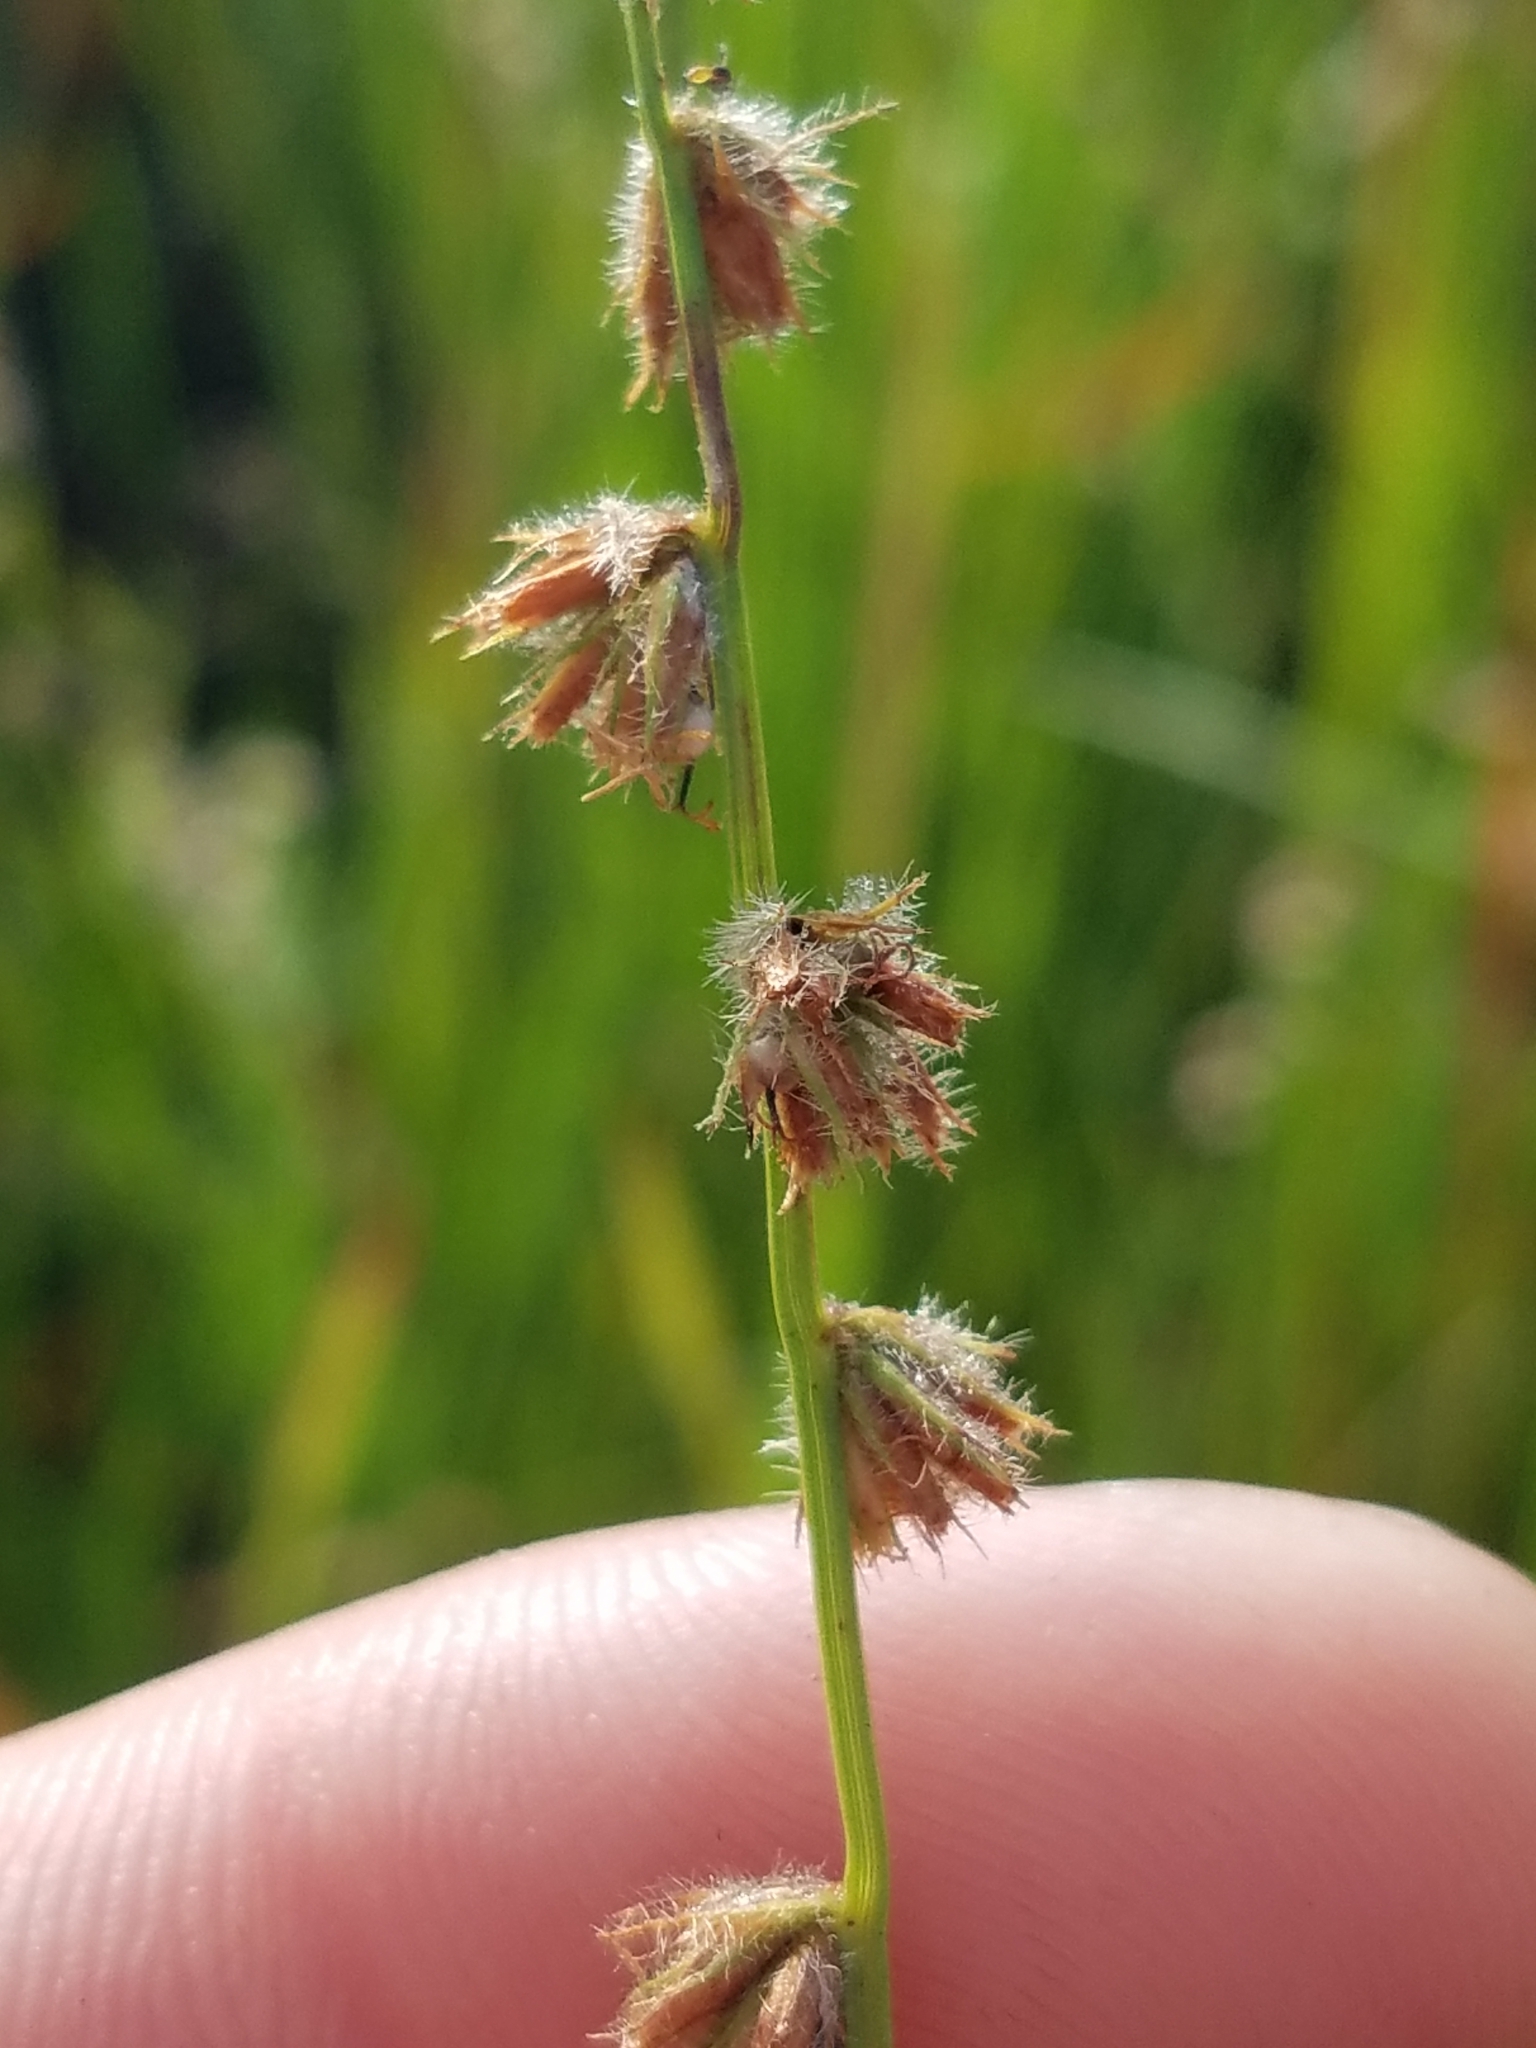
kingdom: Plantae
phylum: Tracheophyta
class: Liliopsida
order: Poales
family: Cyperaceae
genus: Scleria
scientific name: Scleria distans
